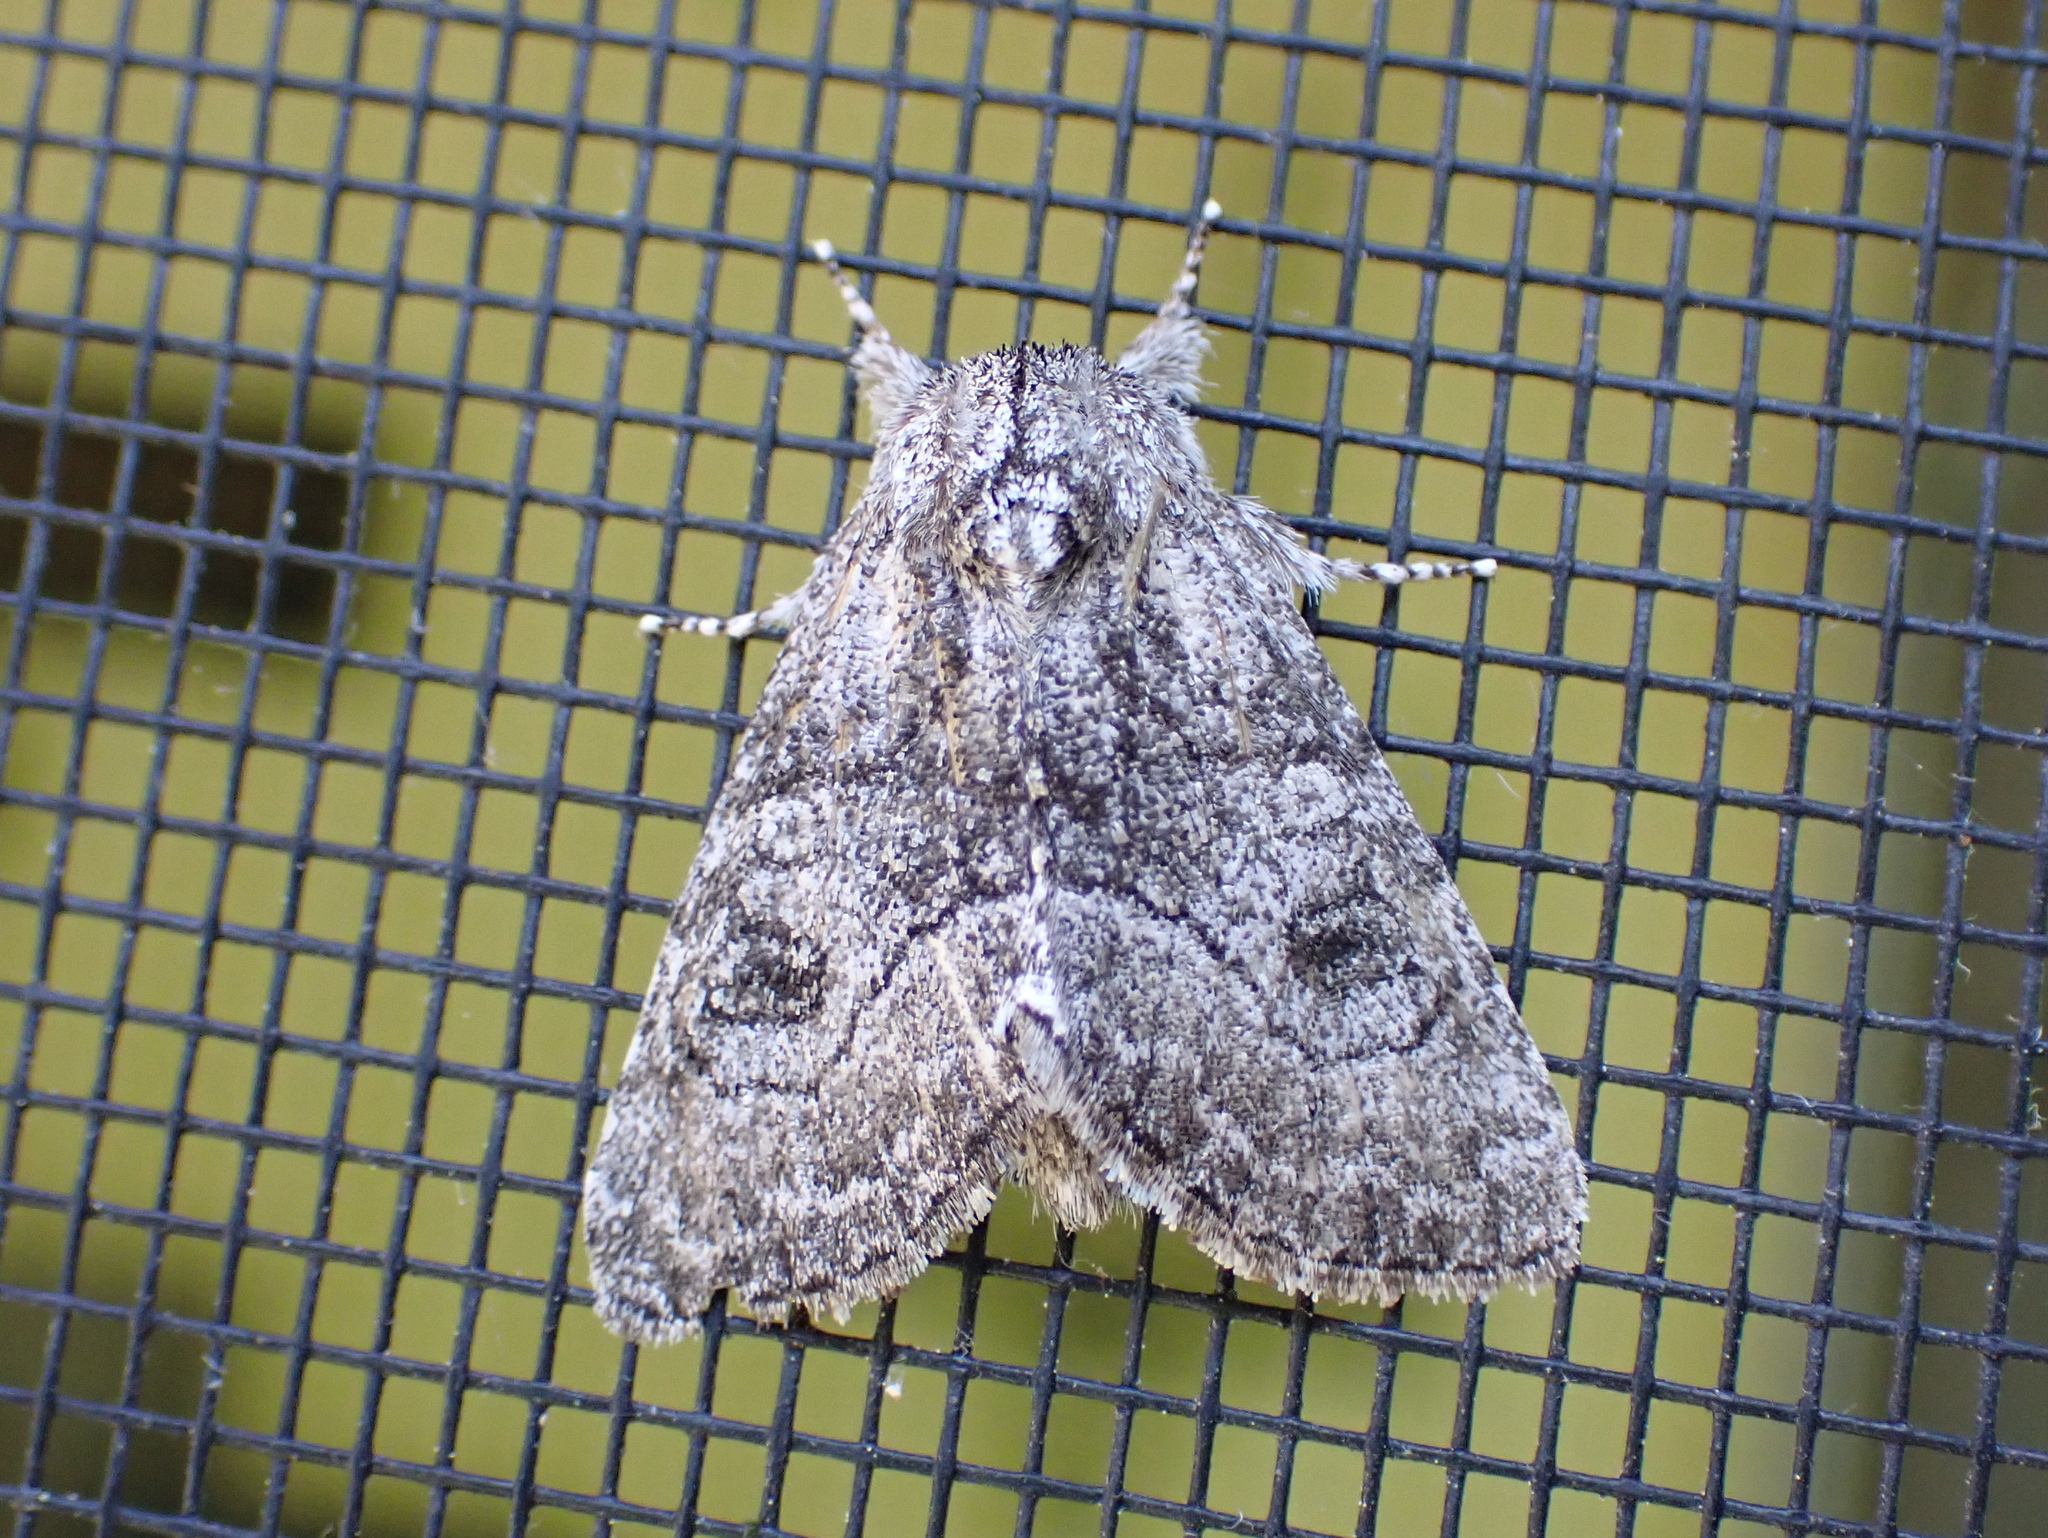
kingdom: Animalia
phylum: Arthropoda
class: Insecta
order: Lepidoptera
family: Noctuidae
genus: Raphia
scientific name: Raphia frater
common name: Brother
